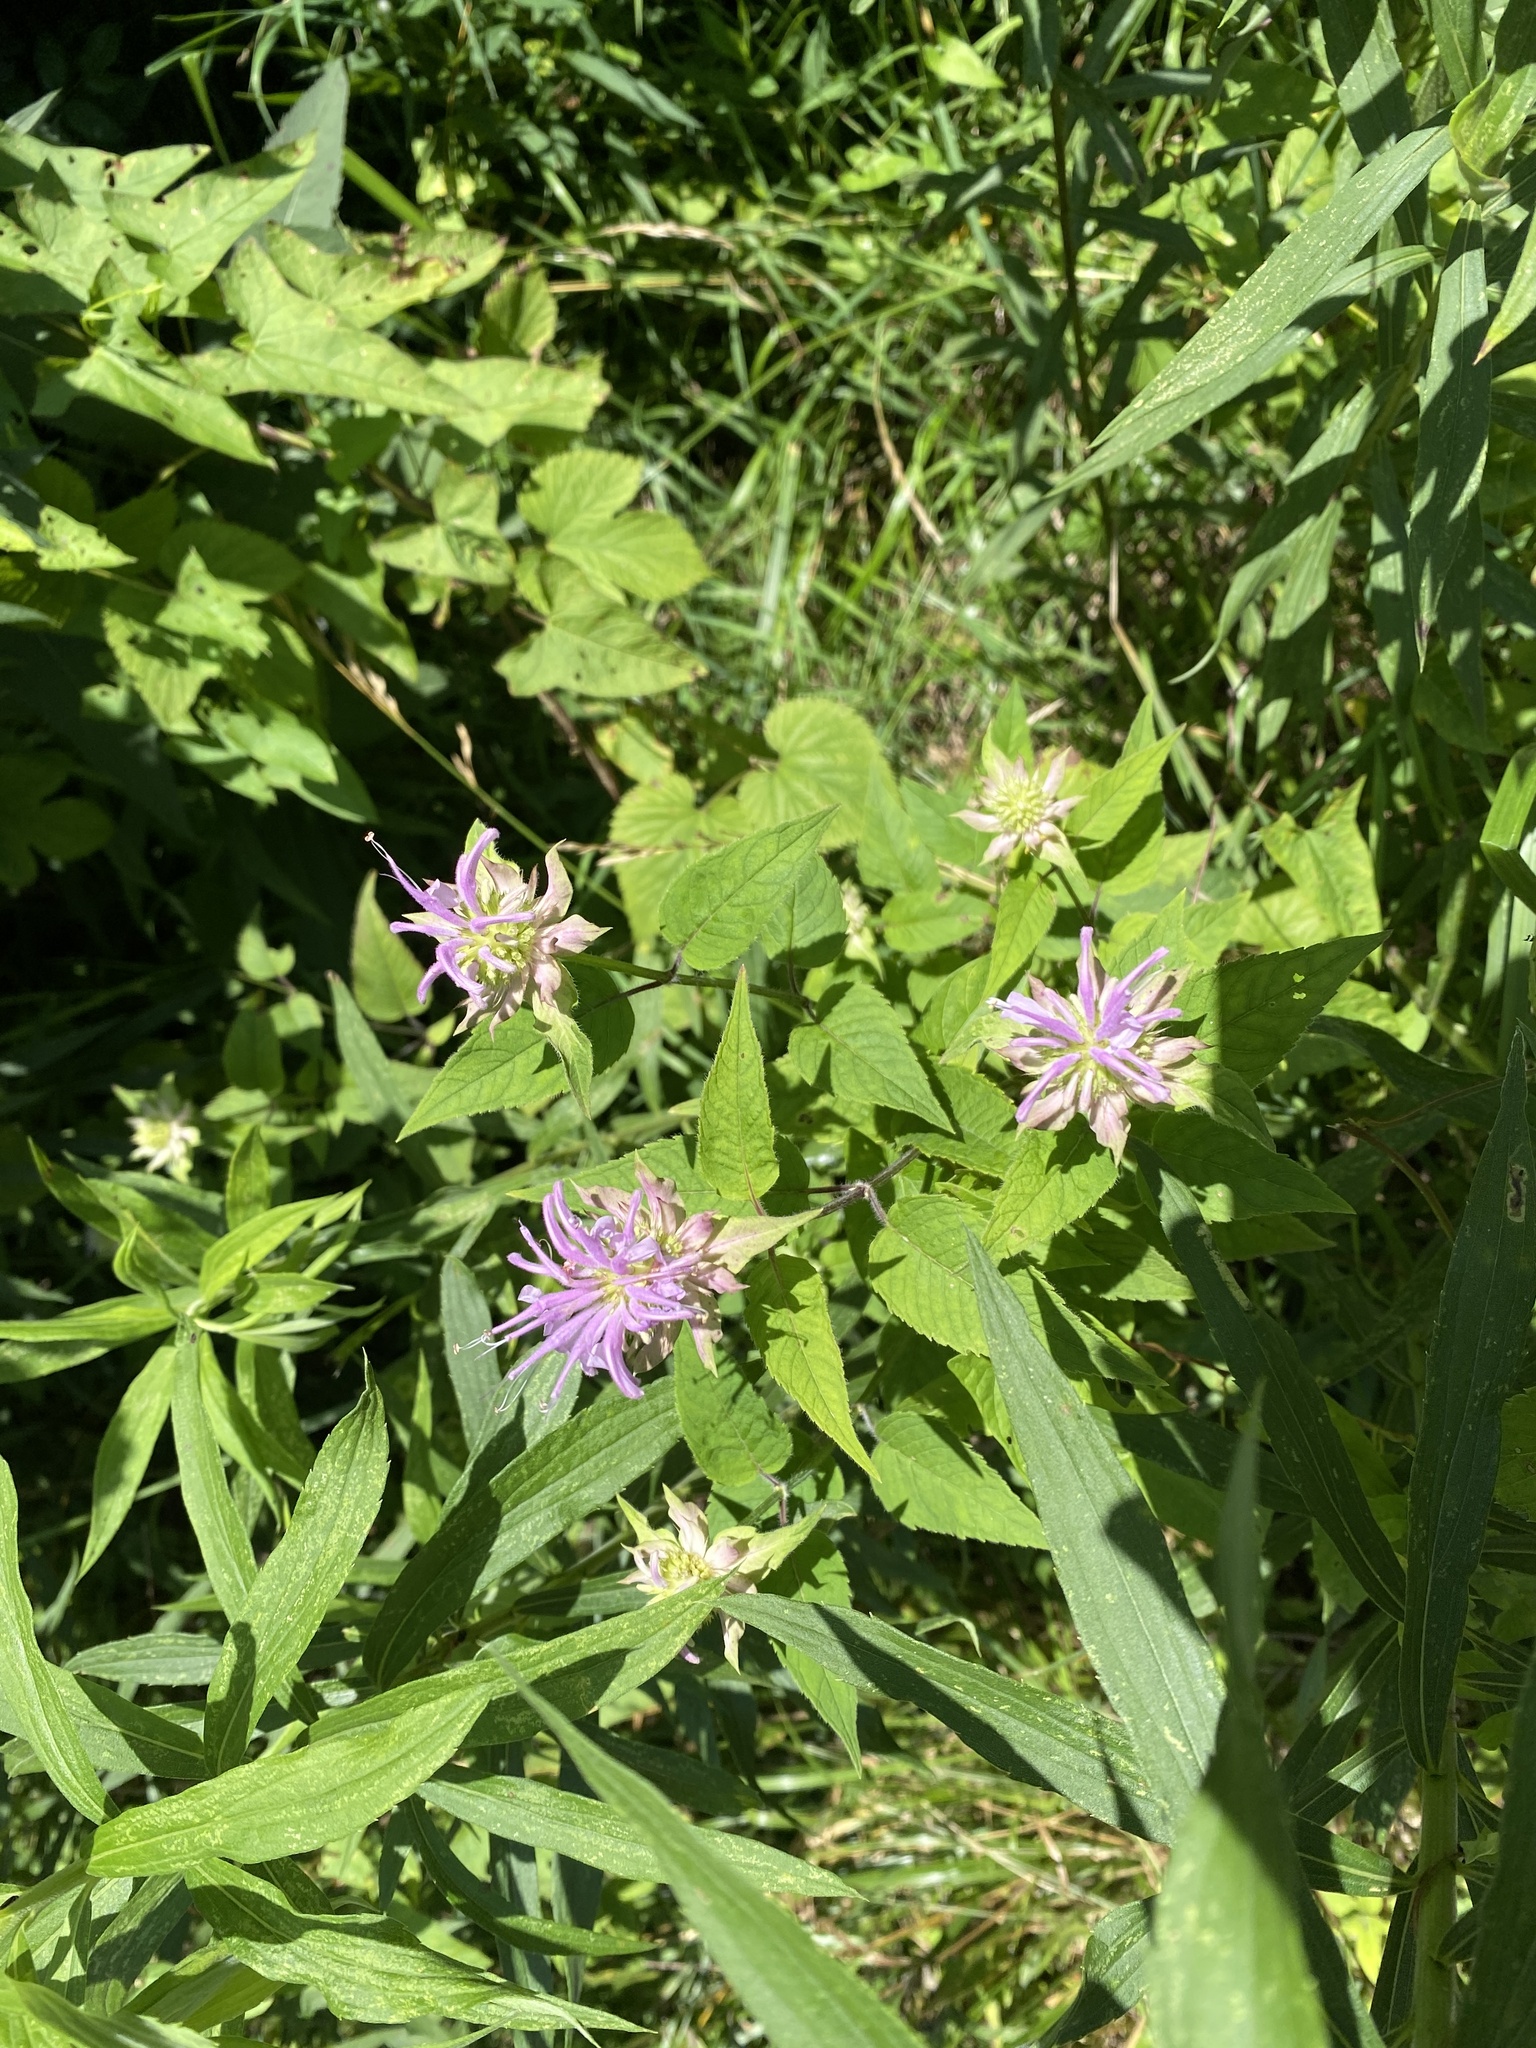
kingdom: Plantae
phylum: Tracheophyta
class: Magnoliopsida
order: Lamiales
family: Lamiaceae
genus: Monarda
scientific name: Monarda fistulosa
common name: Purple beebalm
